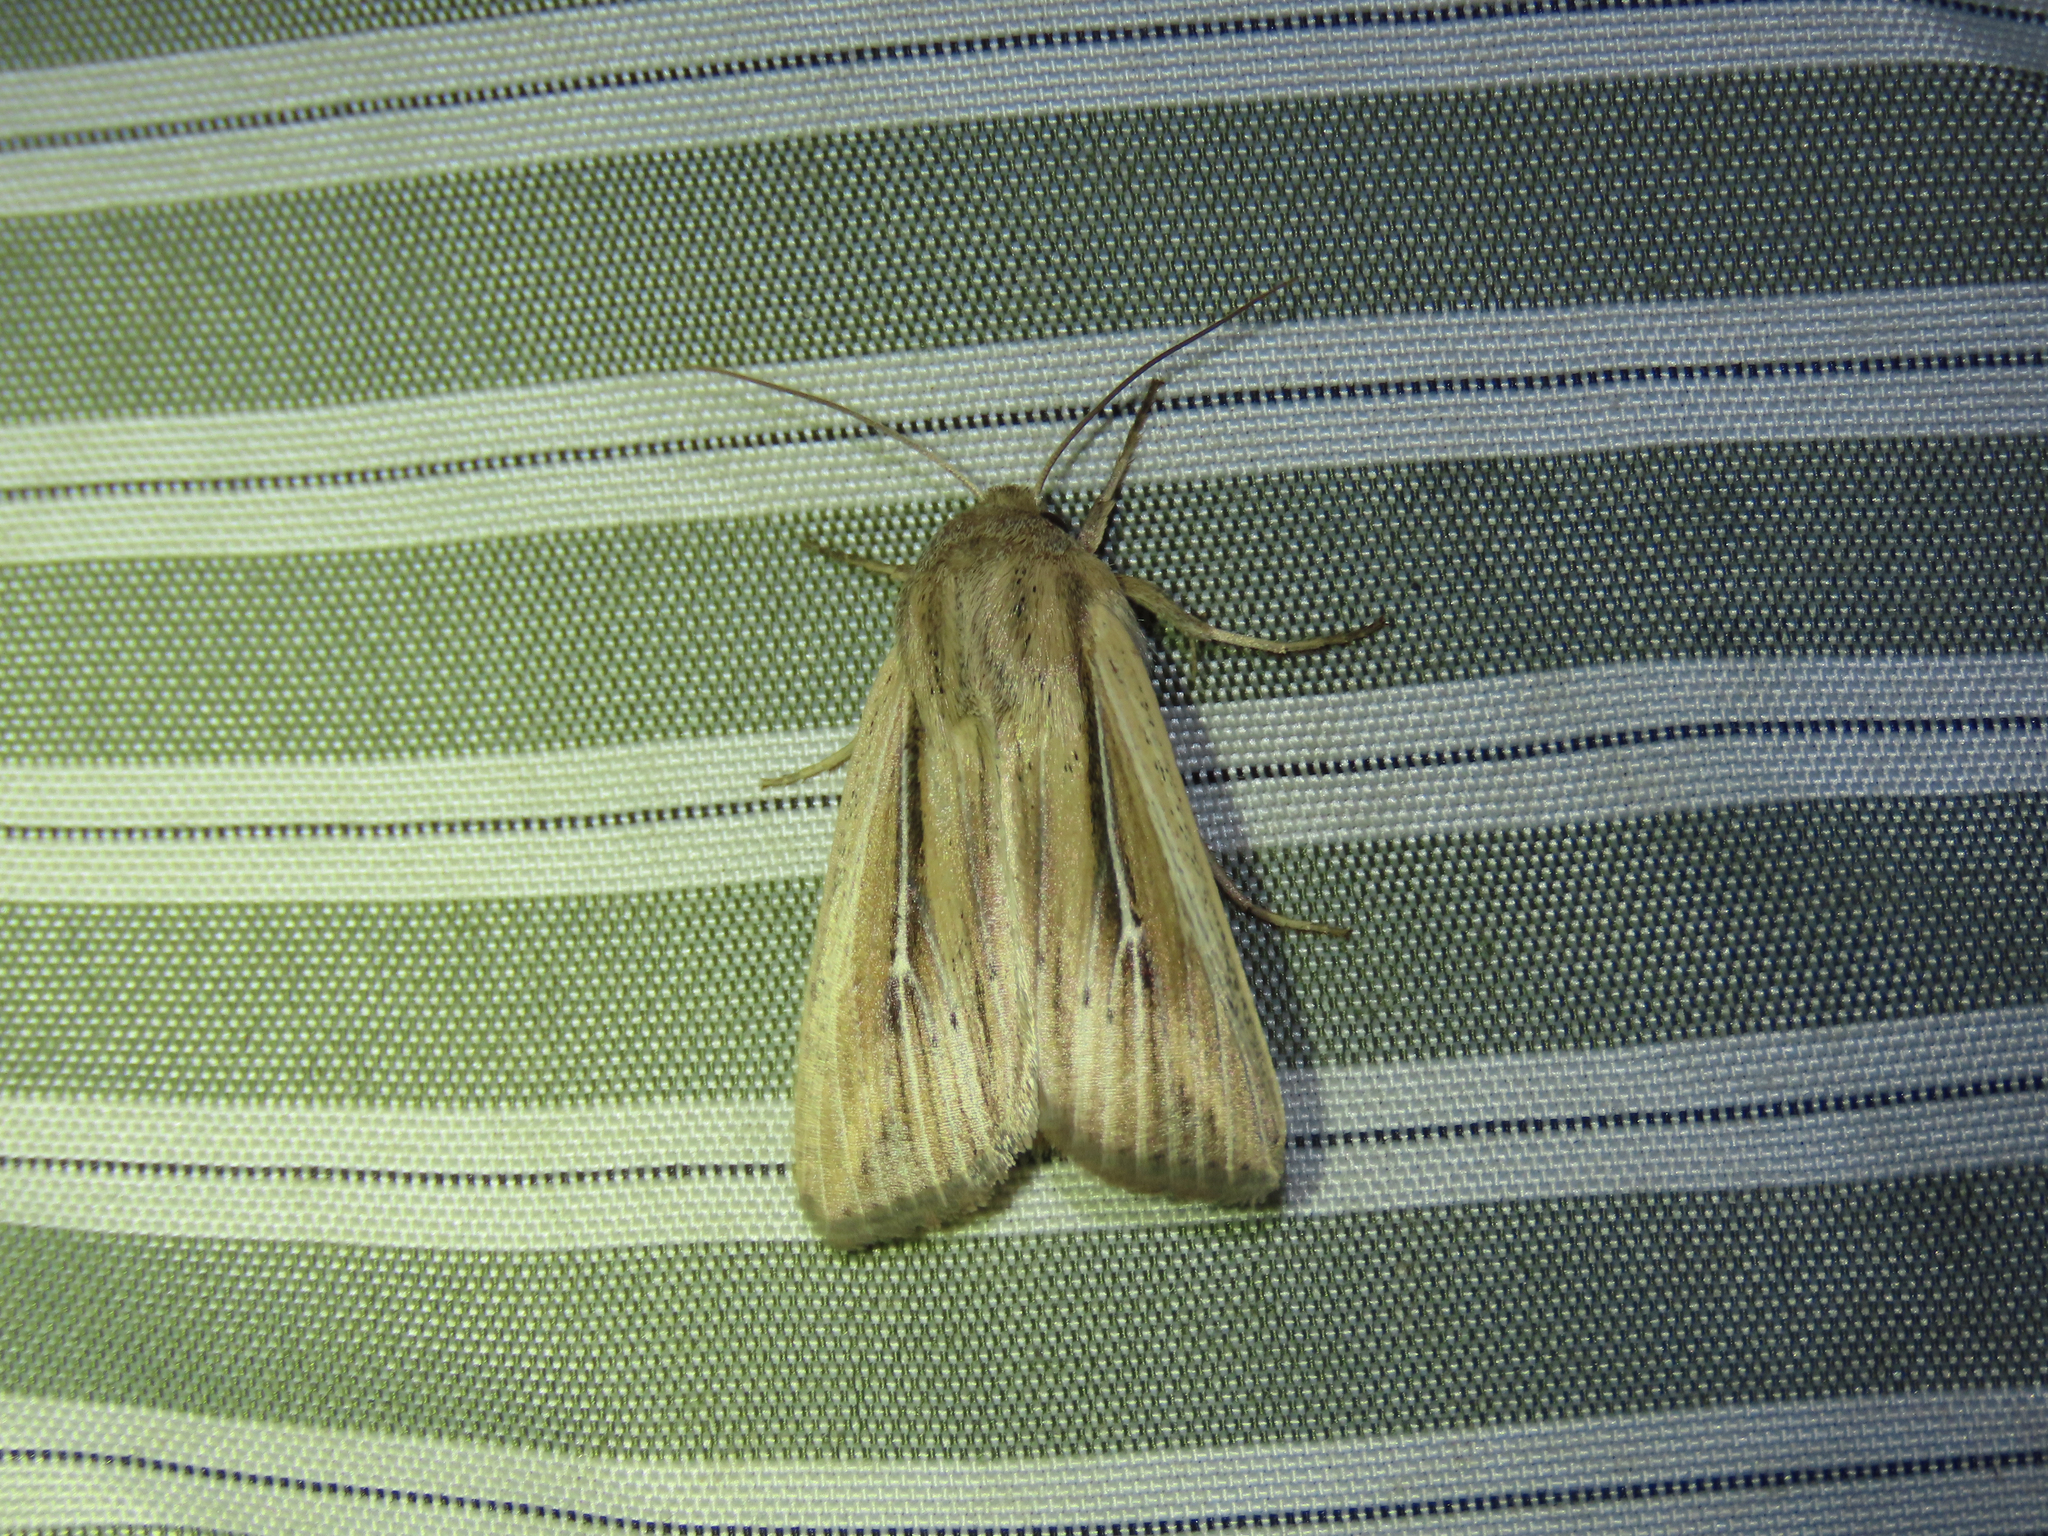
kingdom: Animalia
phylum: Arthropoda
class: Insecta
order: Lepidoptera
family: Noctuidae
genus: Dargida
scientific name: Dargida diffusa
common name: Wheat head armyworm
